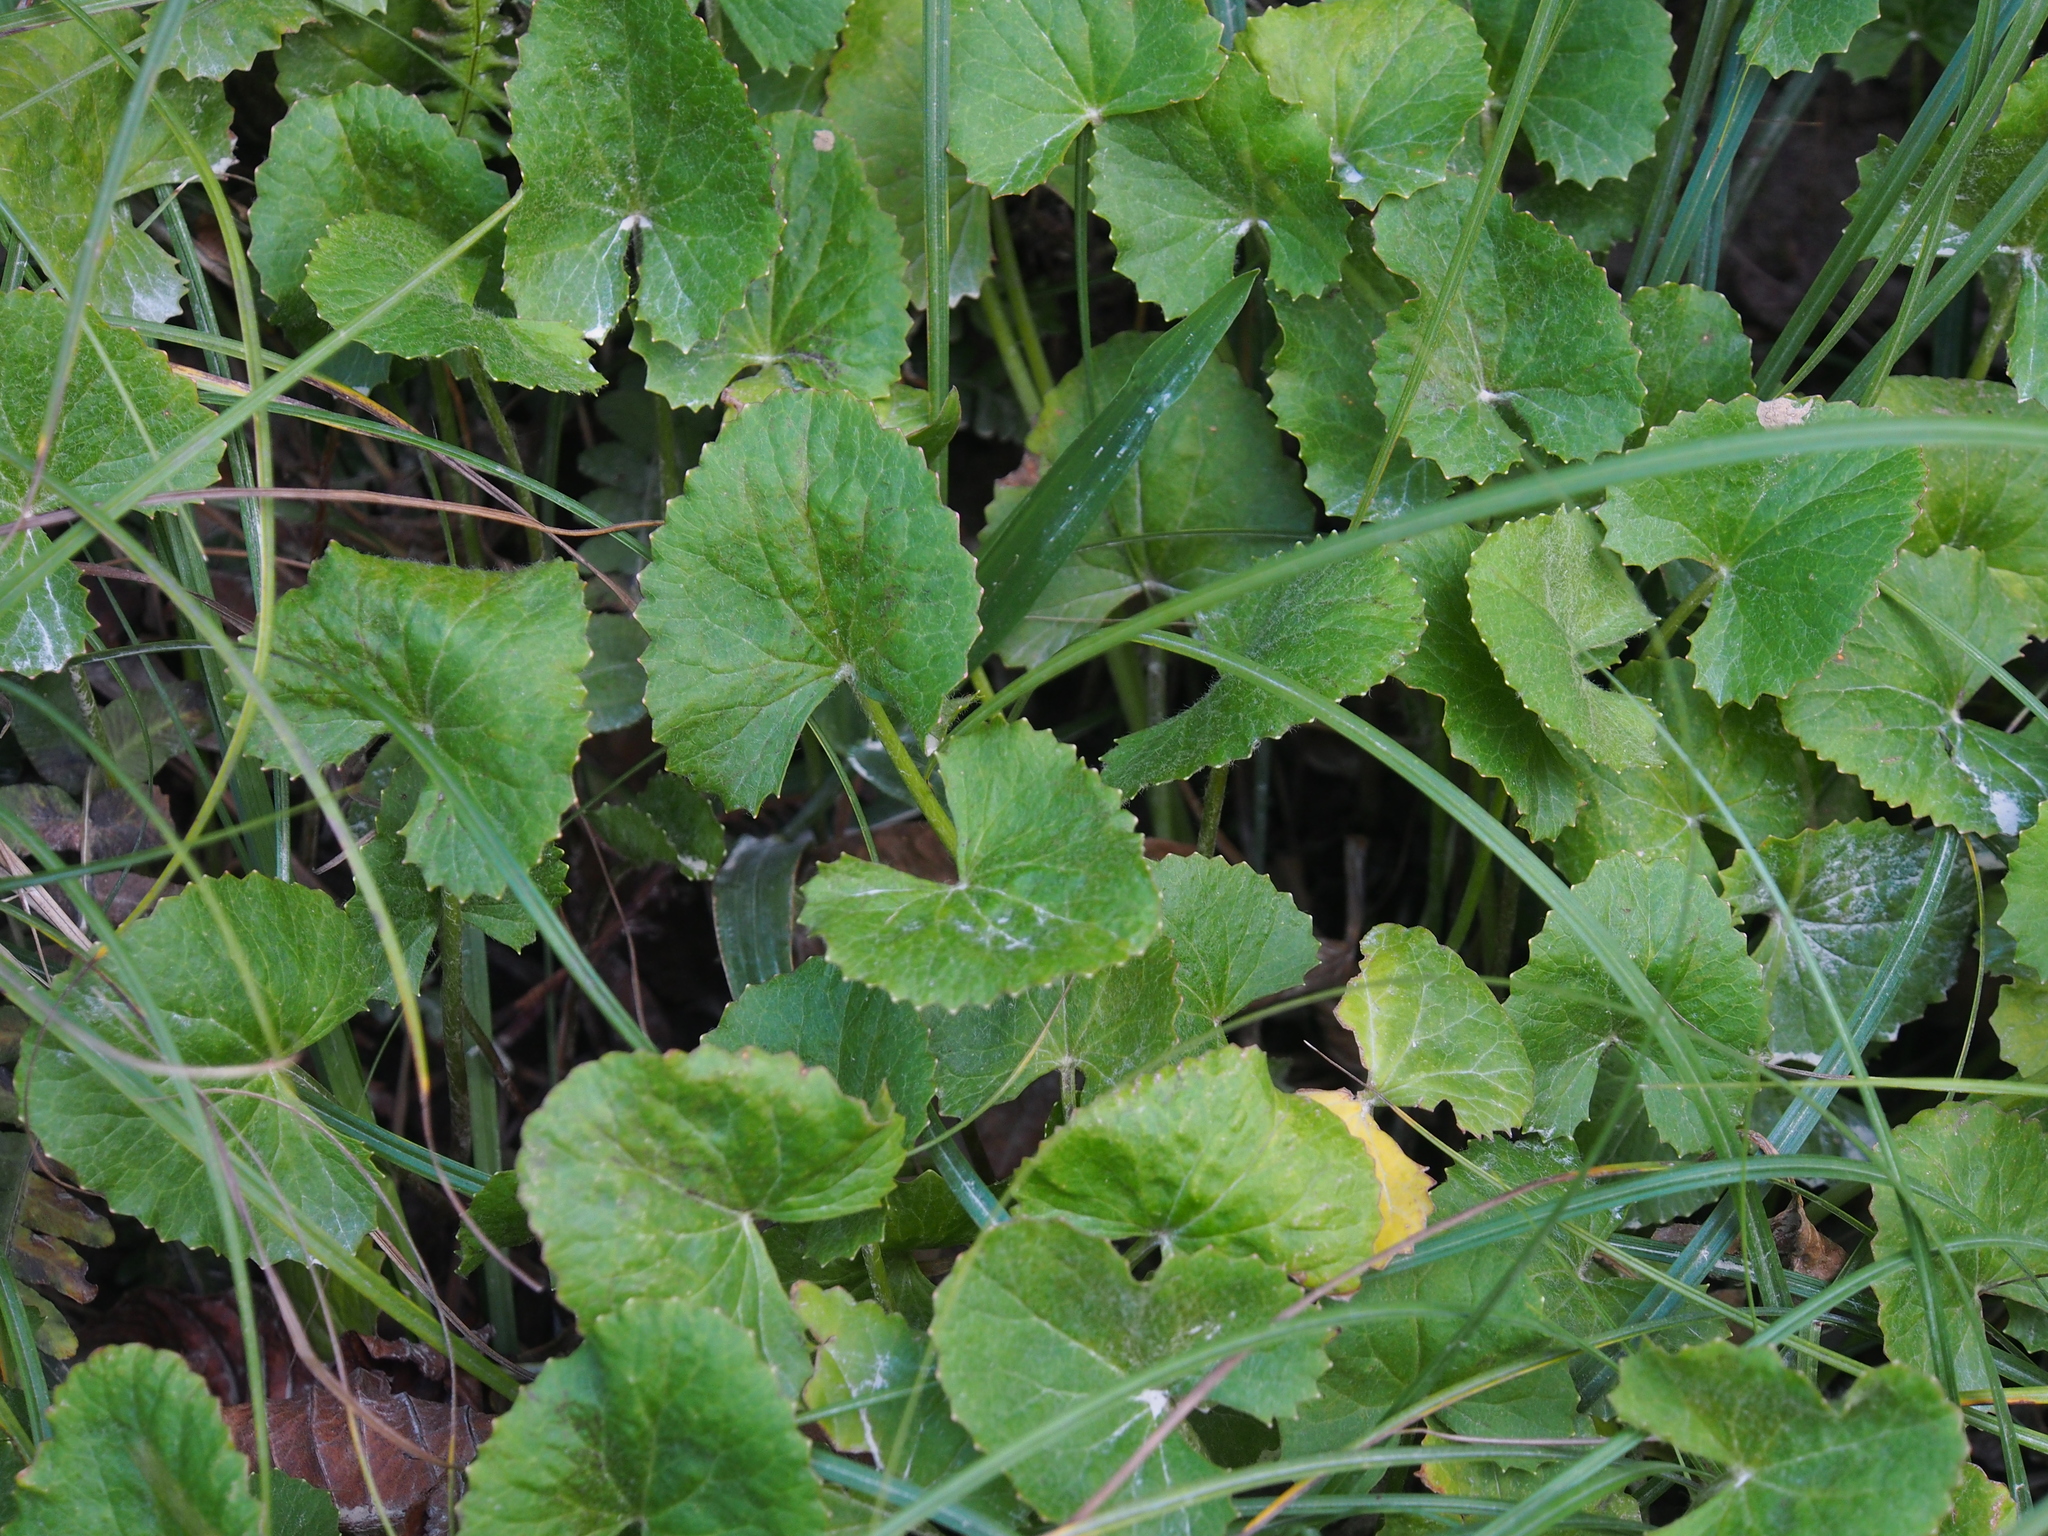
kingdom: Plantae
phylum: Tracheophyta
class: Magnoliopsida
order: Apiales
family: Apiaceae
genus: Centella
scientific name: Centella erecta
